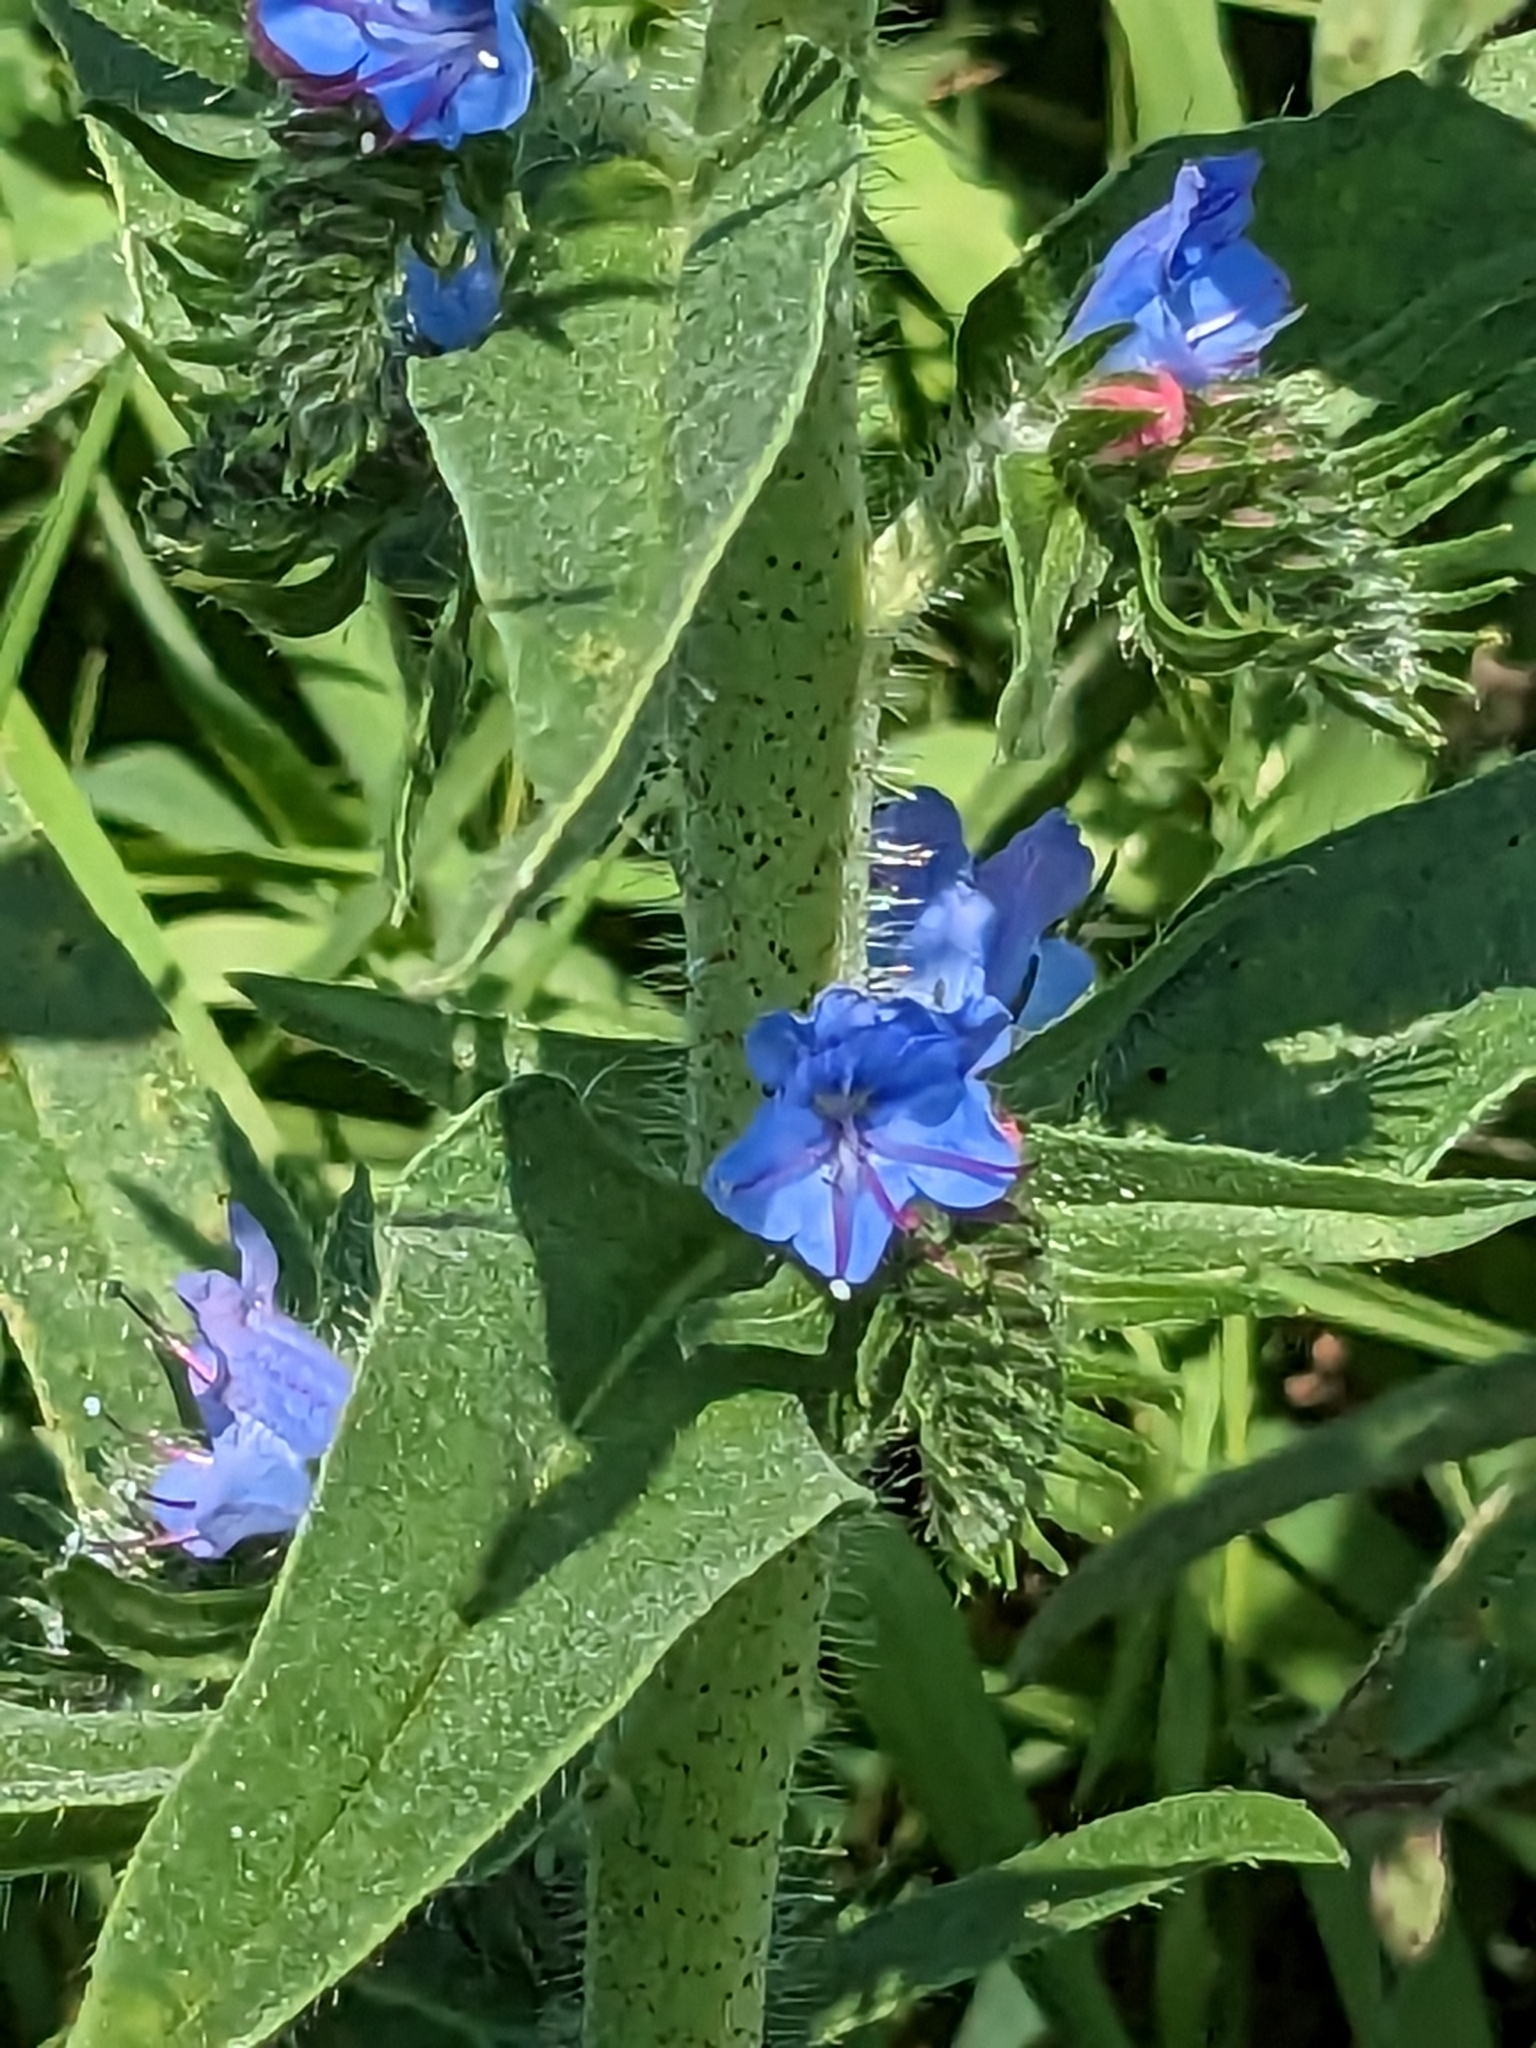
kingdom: Plantae
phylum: Tracheophyta
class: Magnoliopsida
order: Boraginales
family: Boraginaceae
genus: Echium
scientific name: Echium vulgare
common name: Common viper's bugloss
